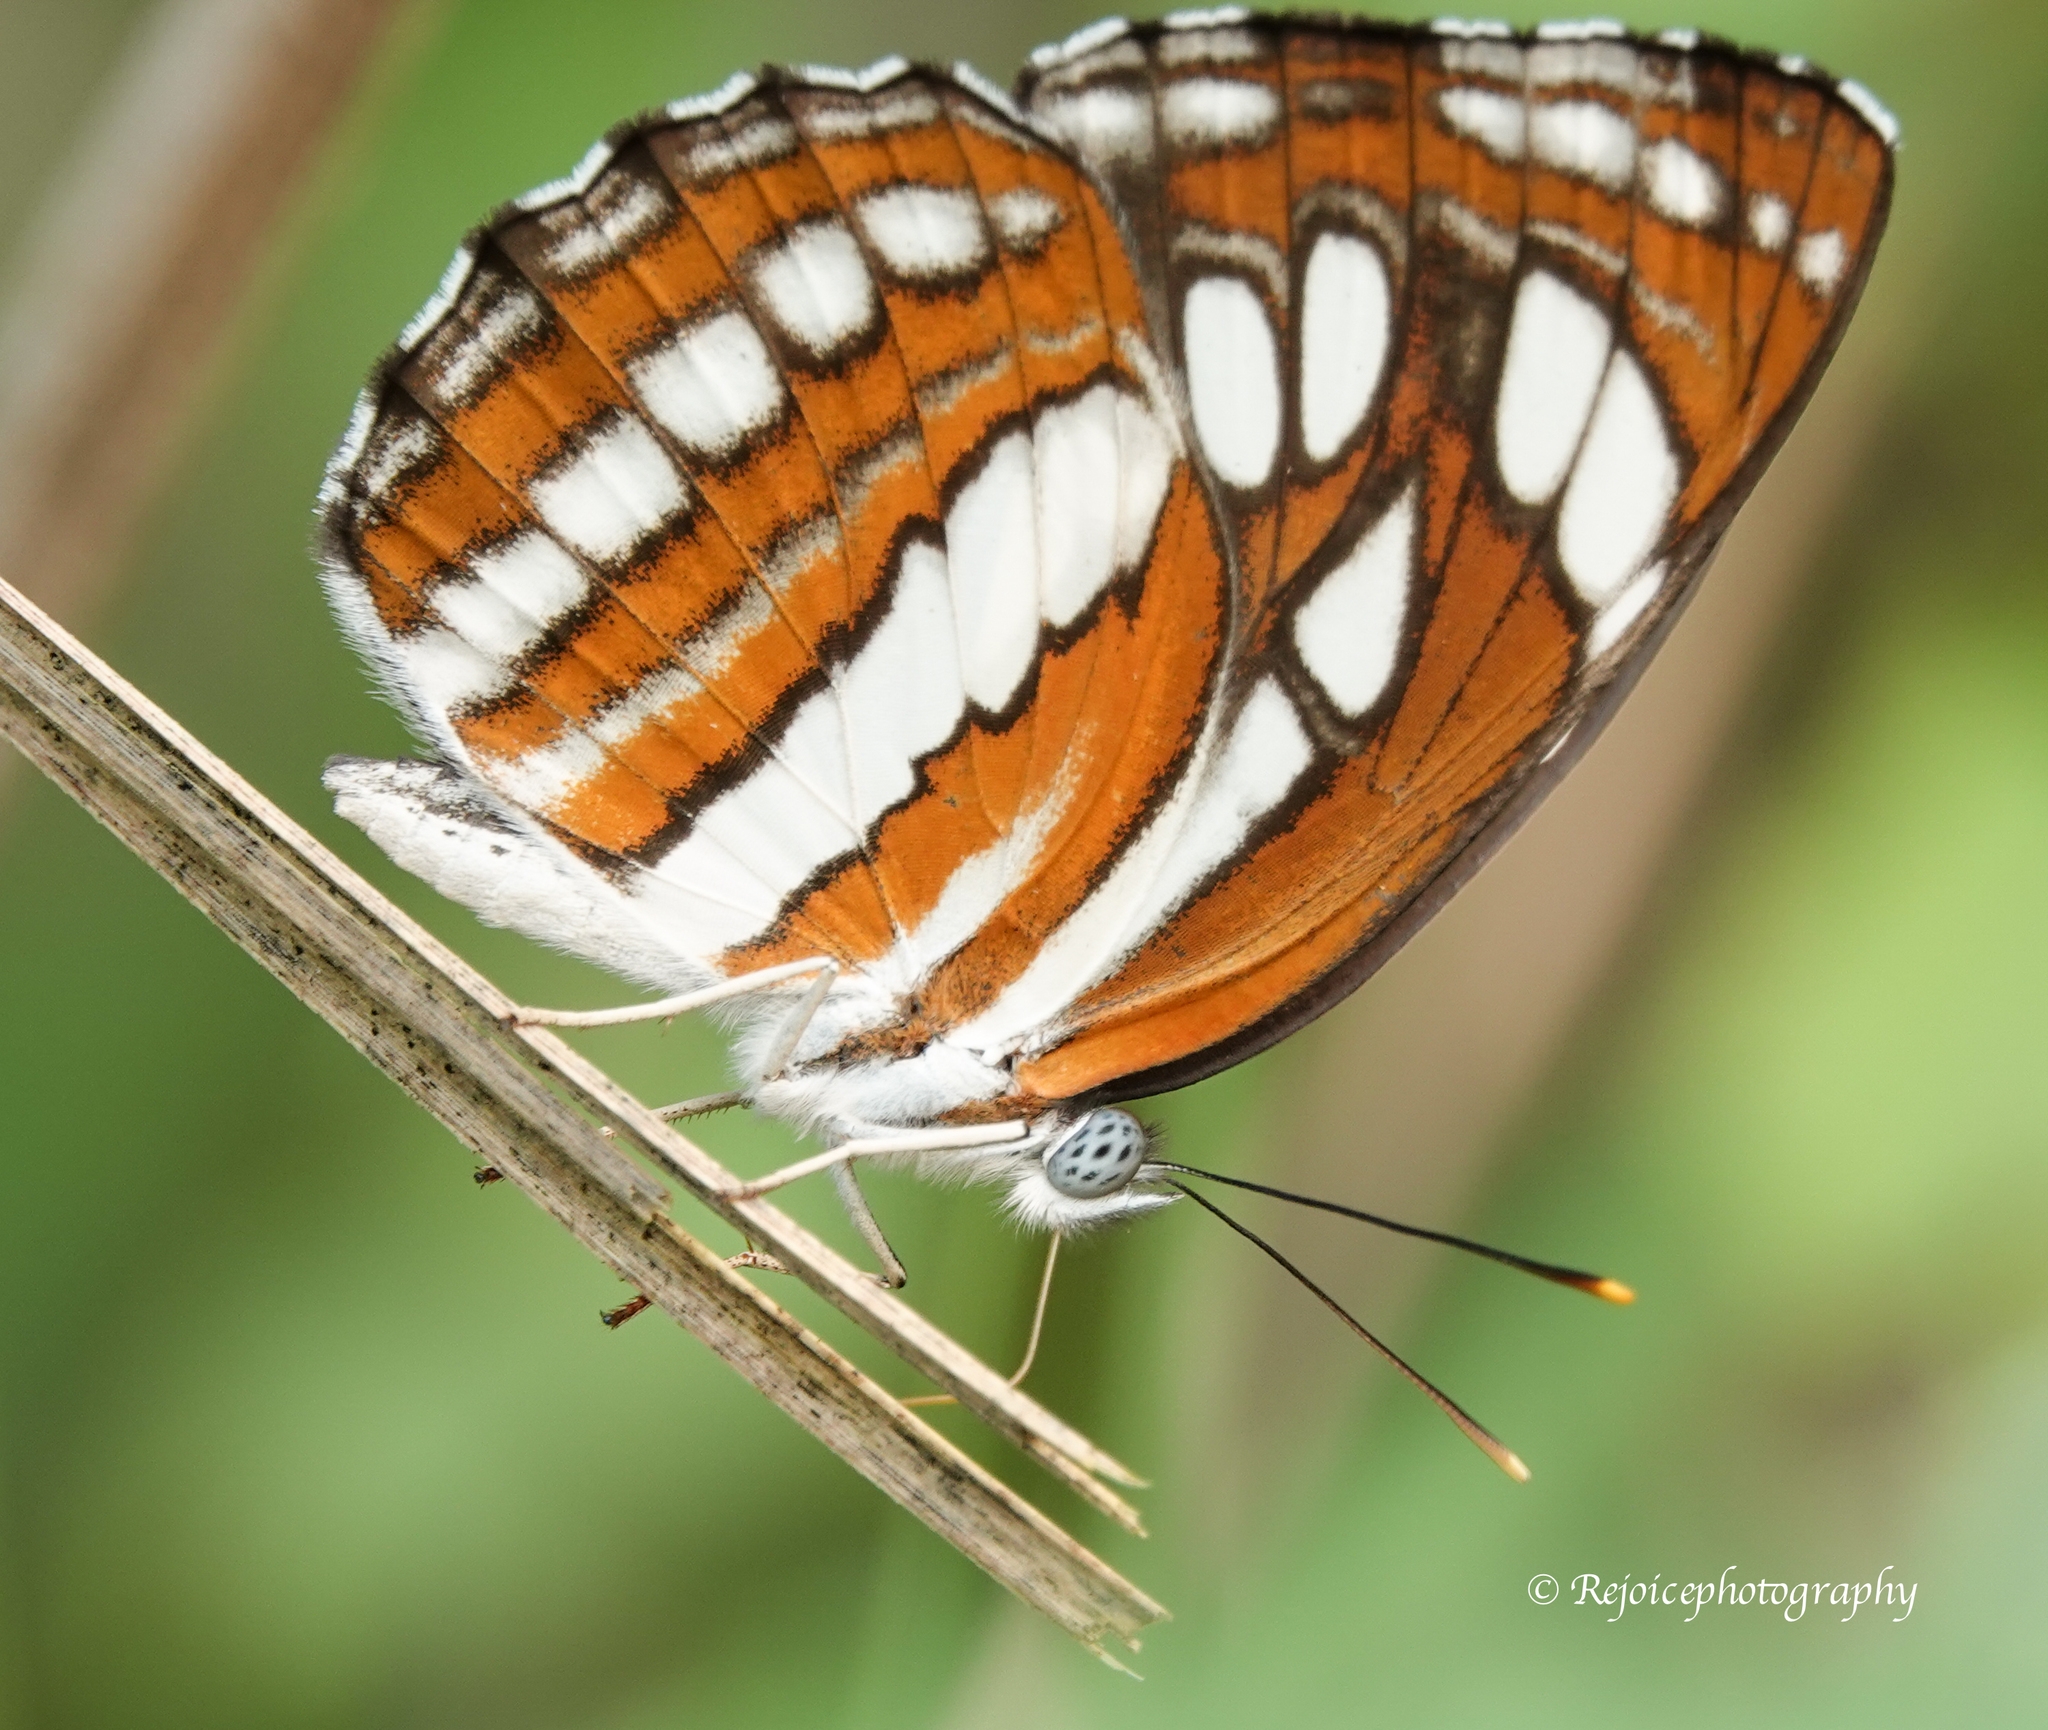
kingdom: Animalia
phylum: Arthropoda
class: Insecta
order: Lepidoptera
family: Nymphalidae
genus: Neptis
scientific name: Neptis hylas
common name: Common sailer
